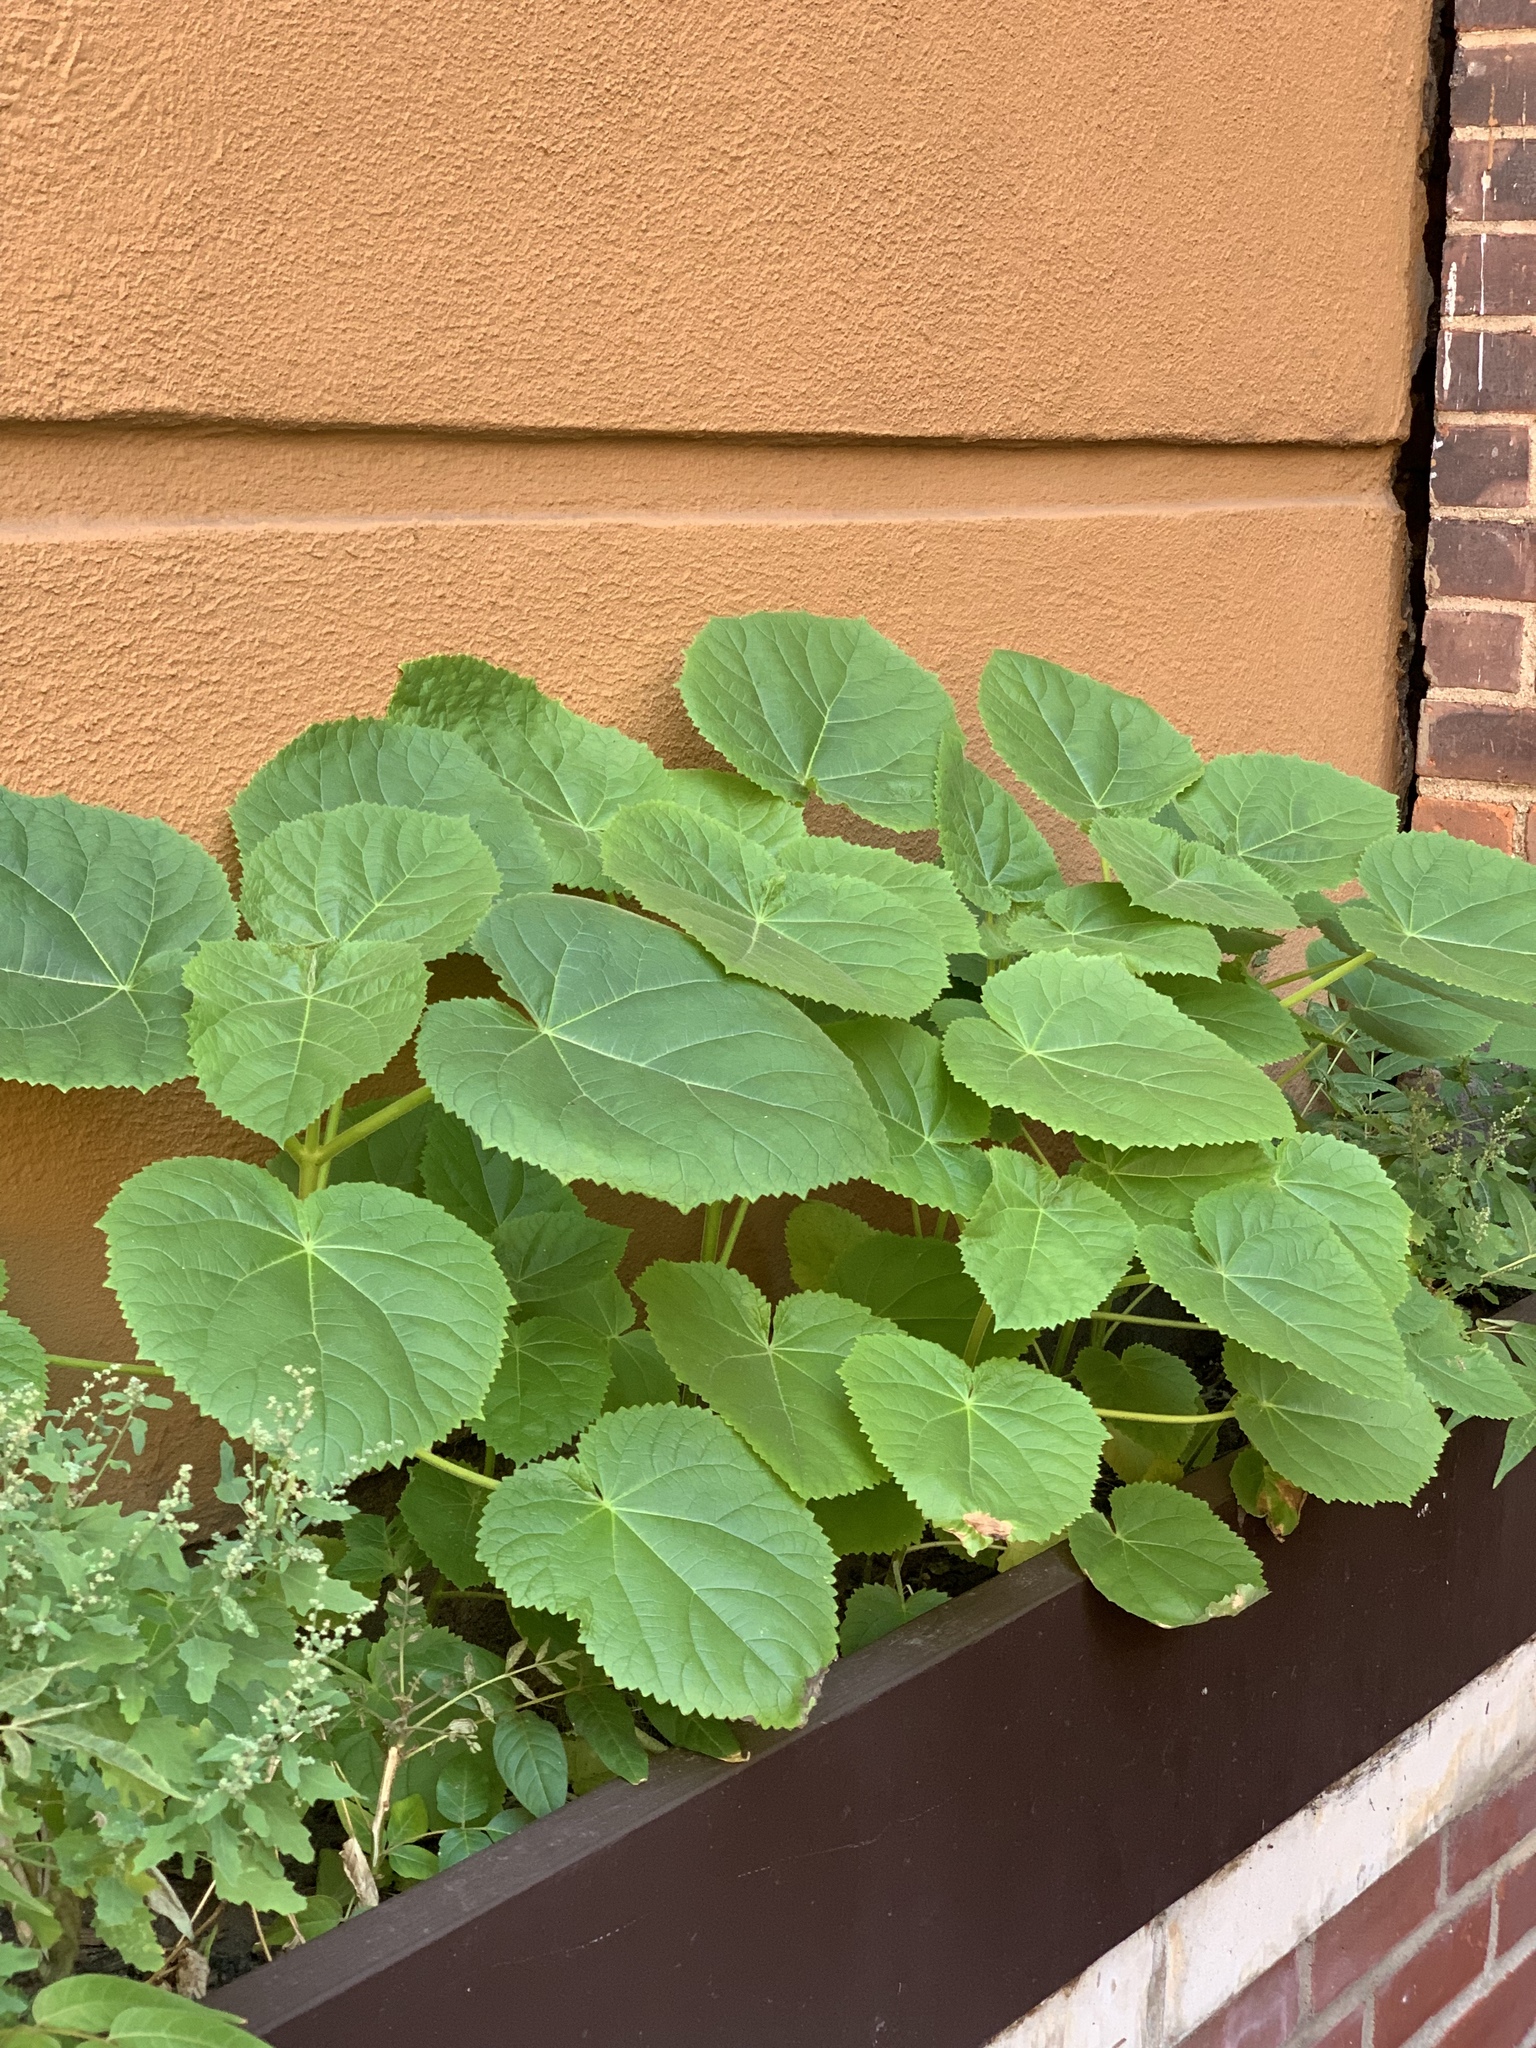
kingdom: Plantae
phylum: Tracheophyta
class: Magnoliopsida
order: Lamiales
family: Paulowniaceae
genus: Paulownia
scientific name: Paulownia tomentosa
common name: Foxglove-tree
